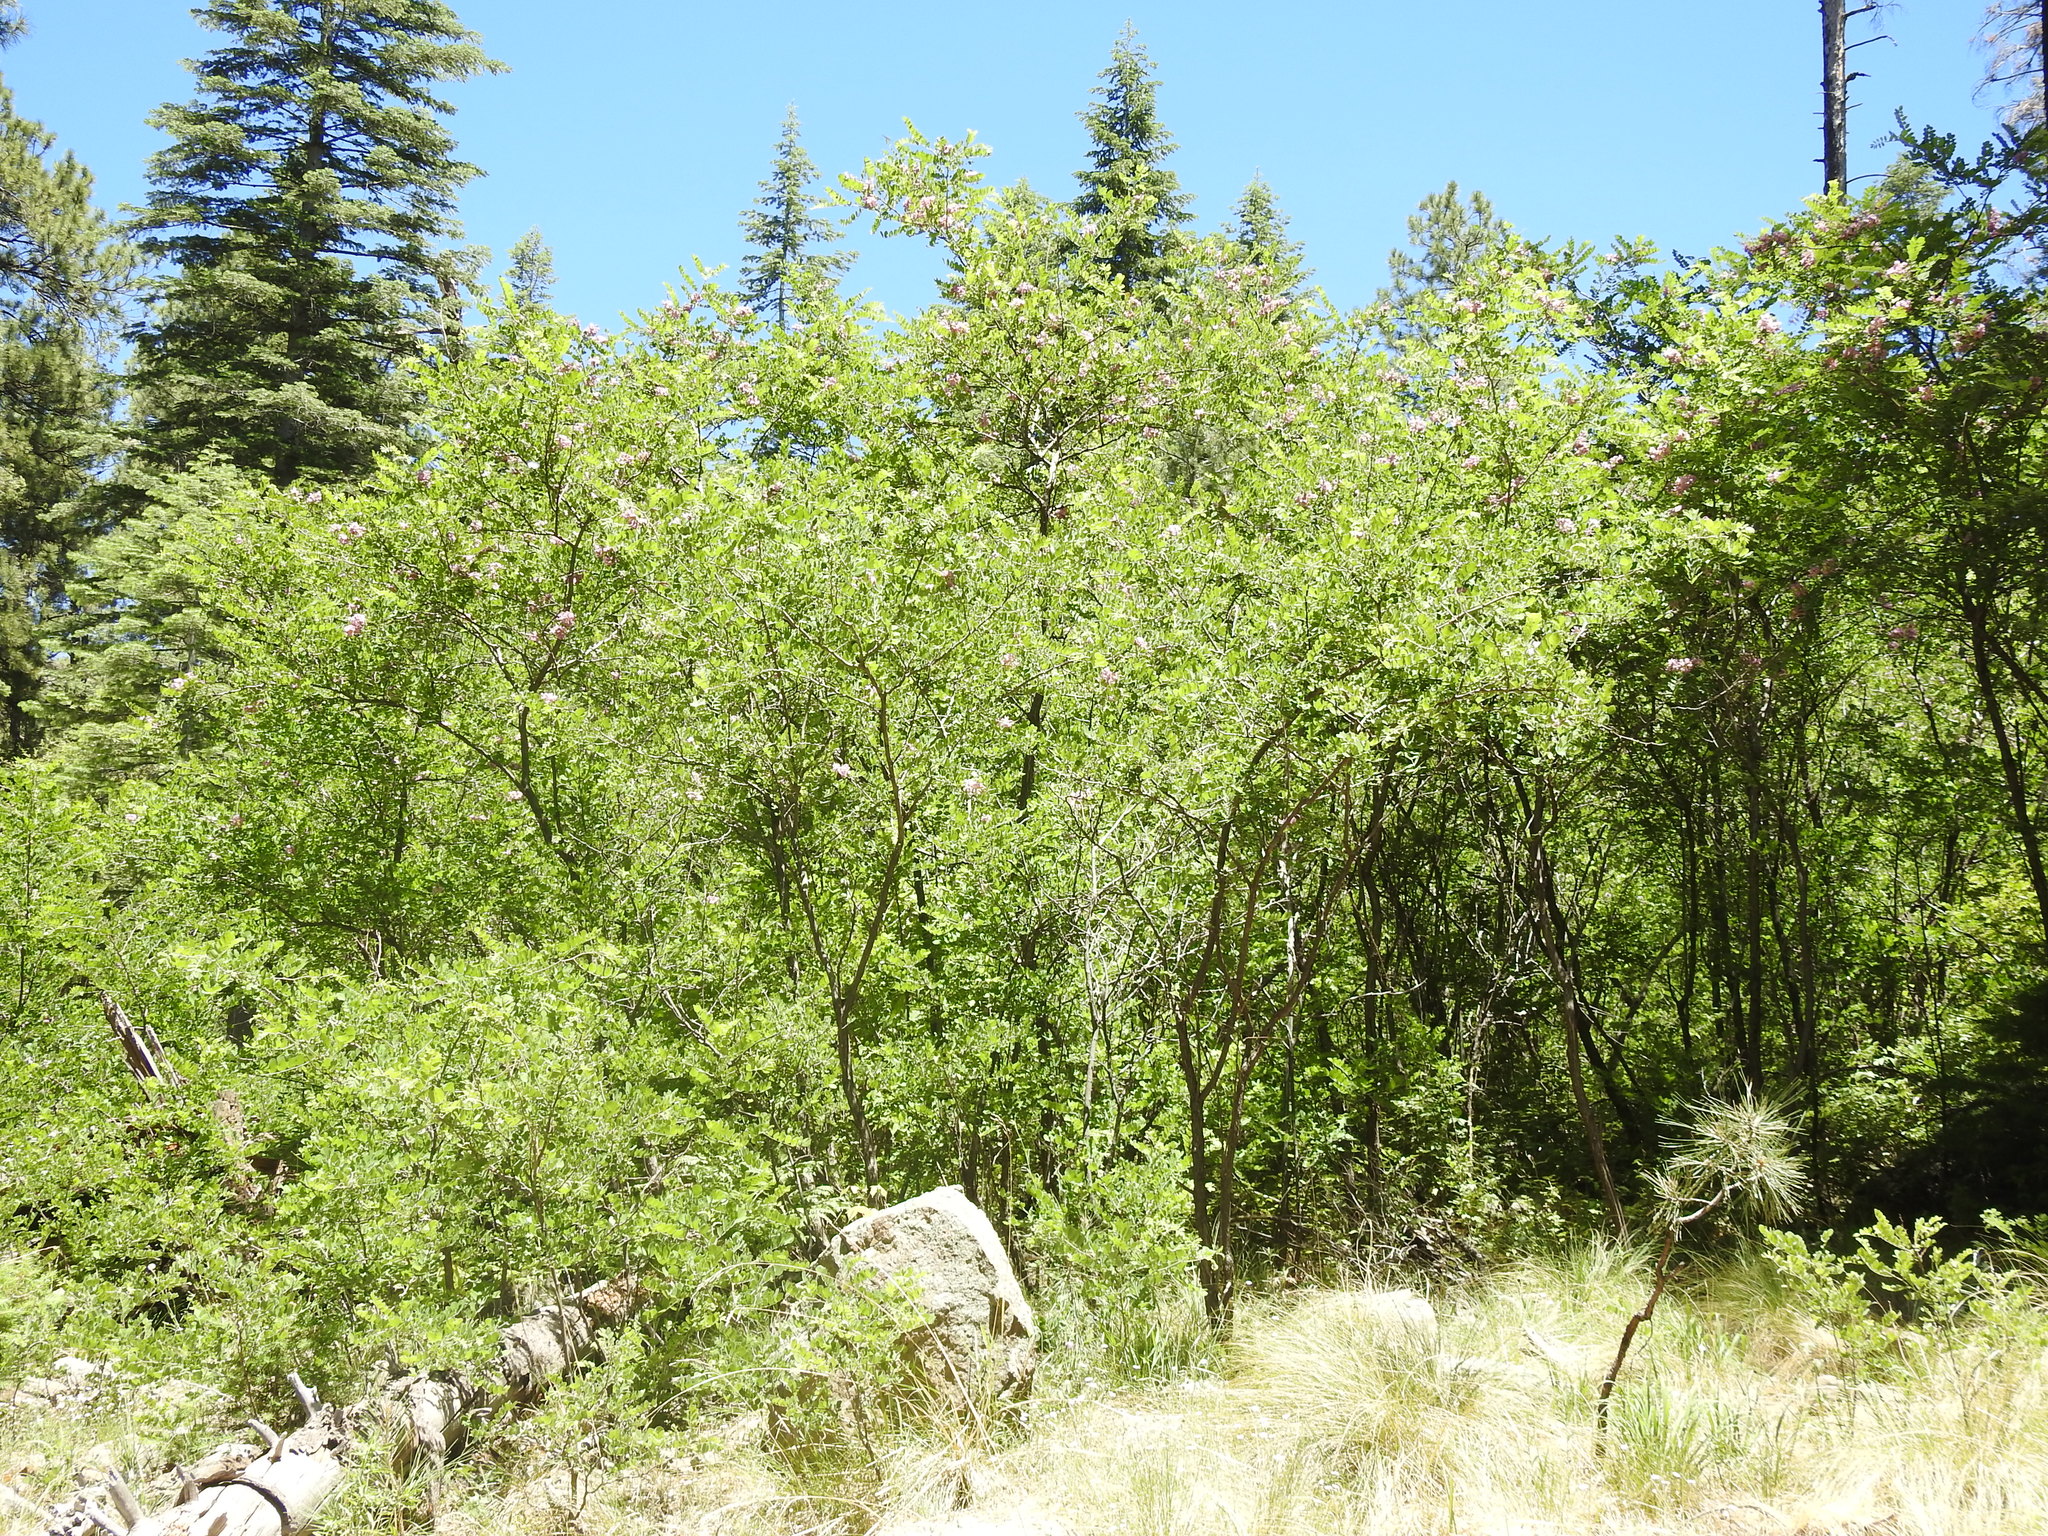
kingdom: Plantae
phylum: Tracheophyta
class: Magnoliopsida
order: Fabales
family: Fabaceae
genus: Robinia
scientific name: Robinia neomexicana
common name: New mexico locust
